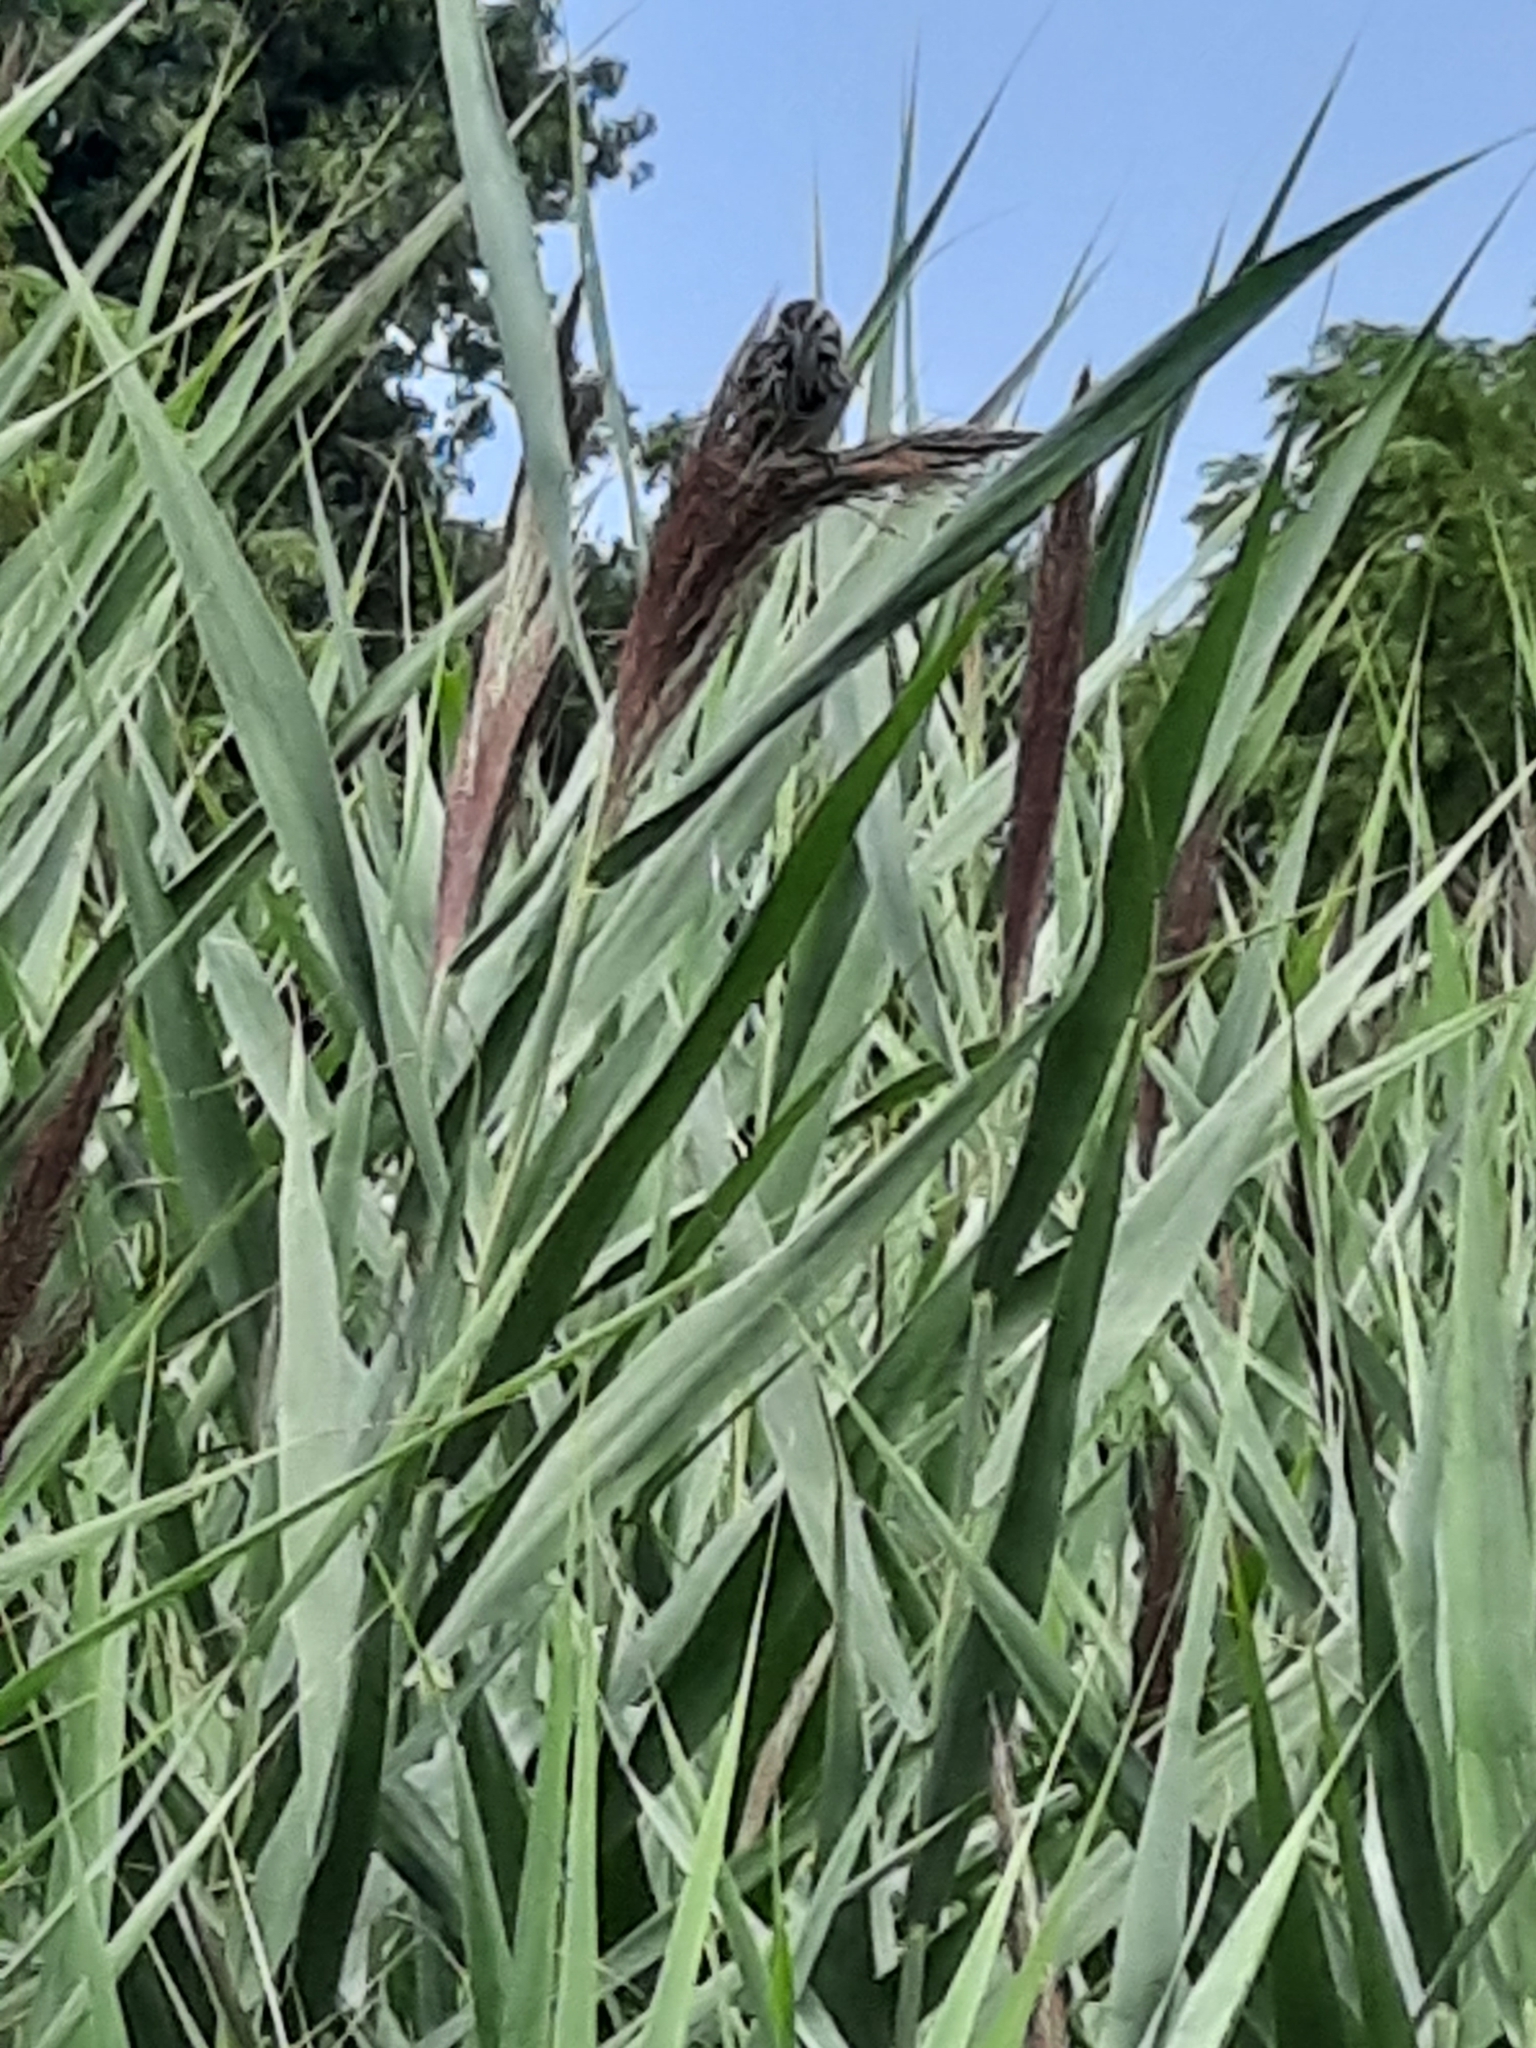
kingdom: Animalia
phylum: Chordata
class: Aves
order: Passeriformes
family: Passerellidae
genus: Melospiza
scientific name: Melospiza melodia
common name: Song sparrow
